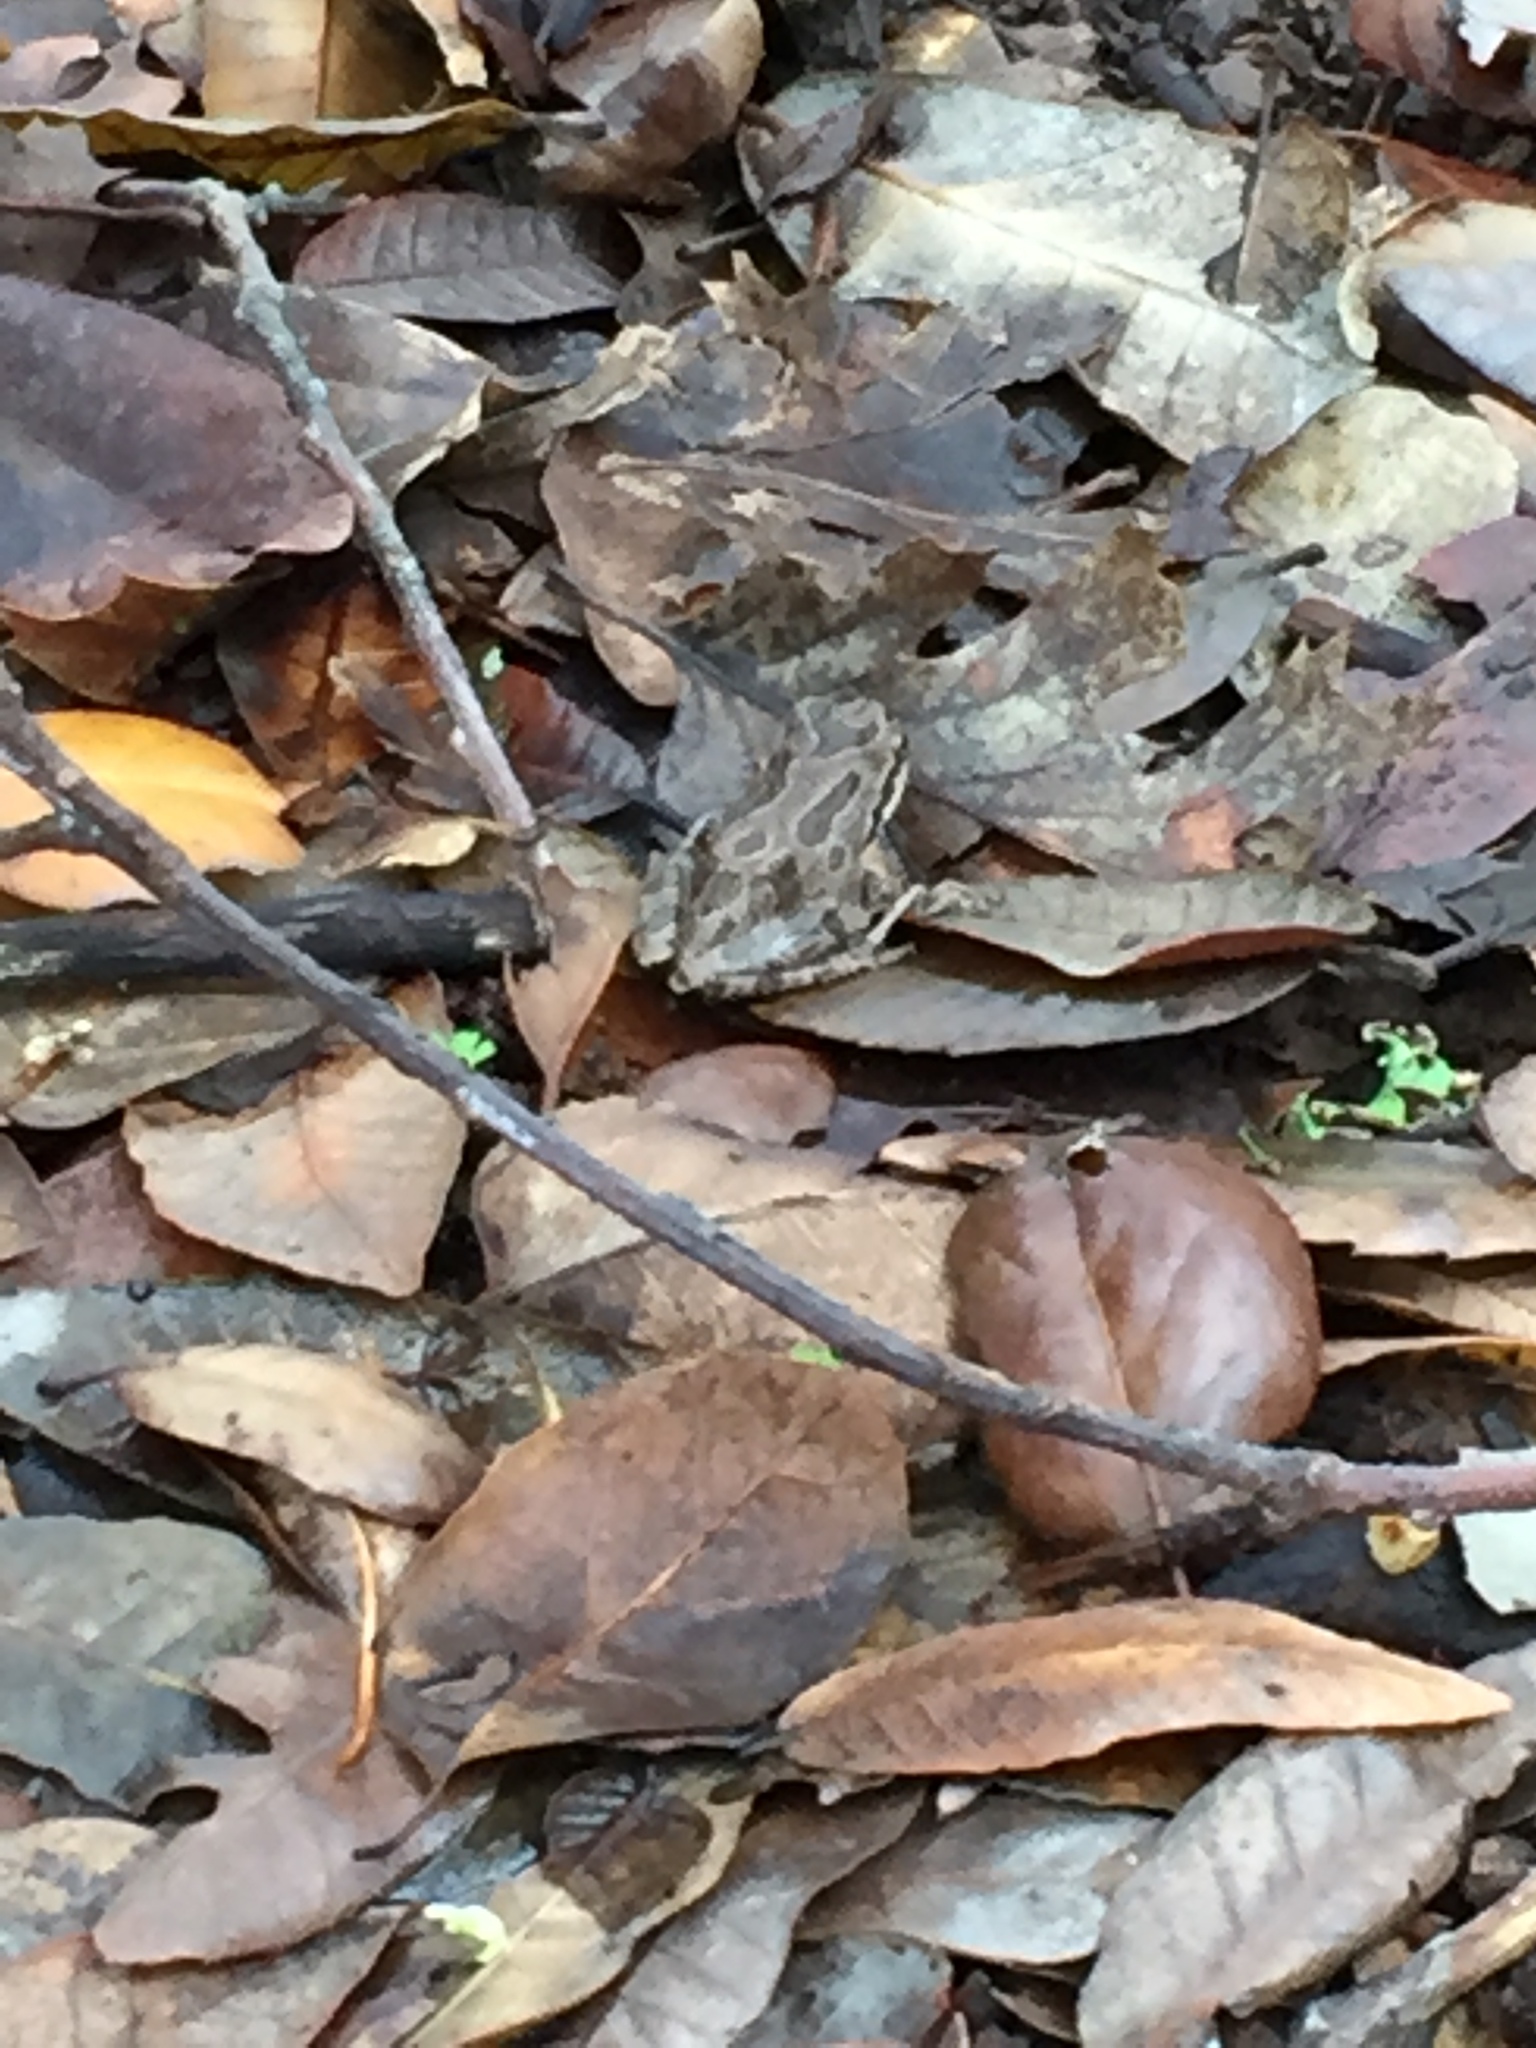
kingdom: Animalia
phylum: Chordata
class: Amphibia
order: Anura
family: Hylidae
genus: Pseudacris
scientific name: Pseudacris regilla
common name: Pacific chorus frog
